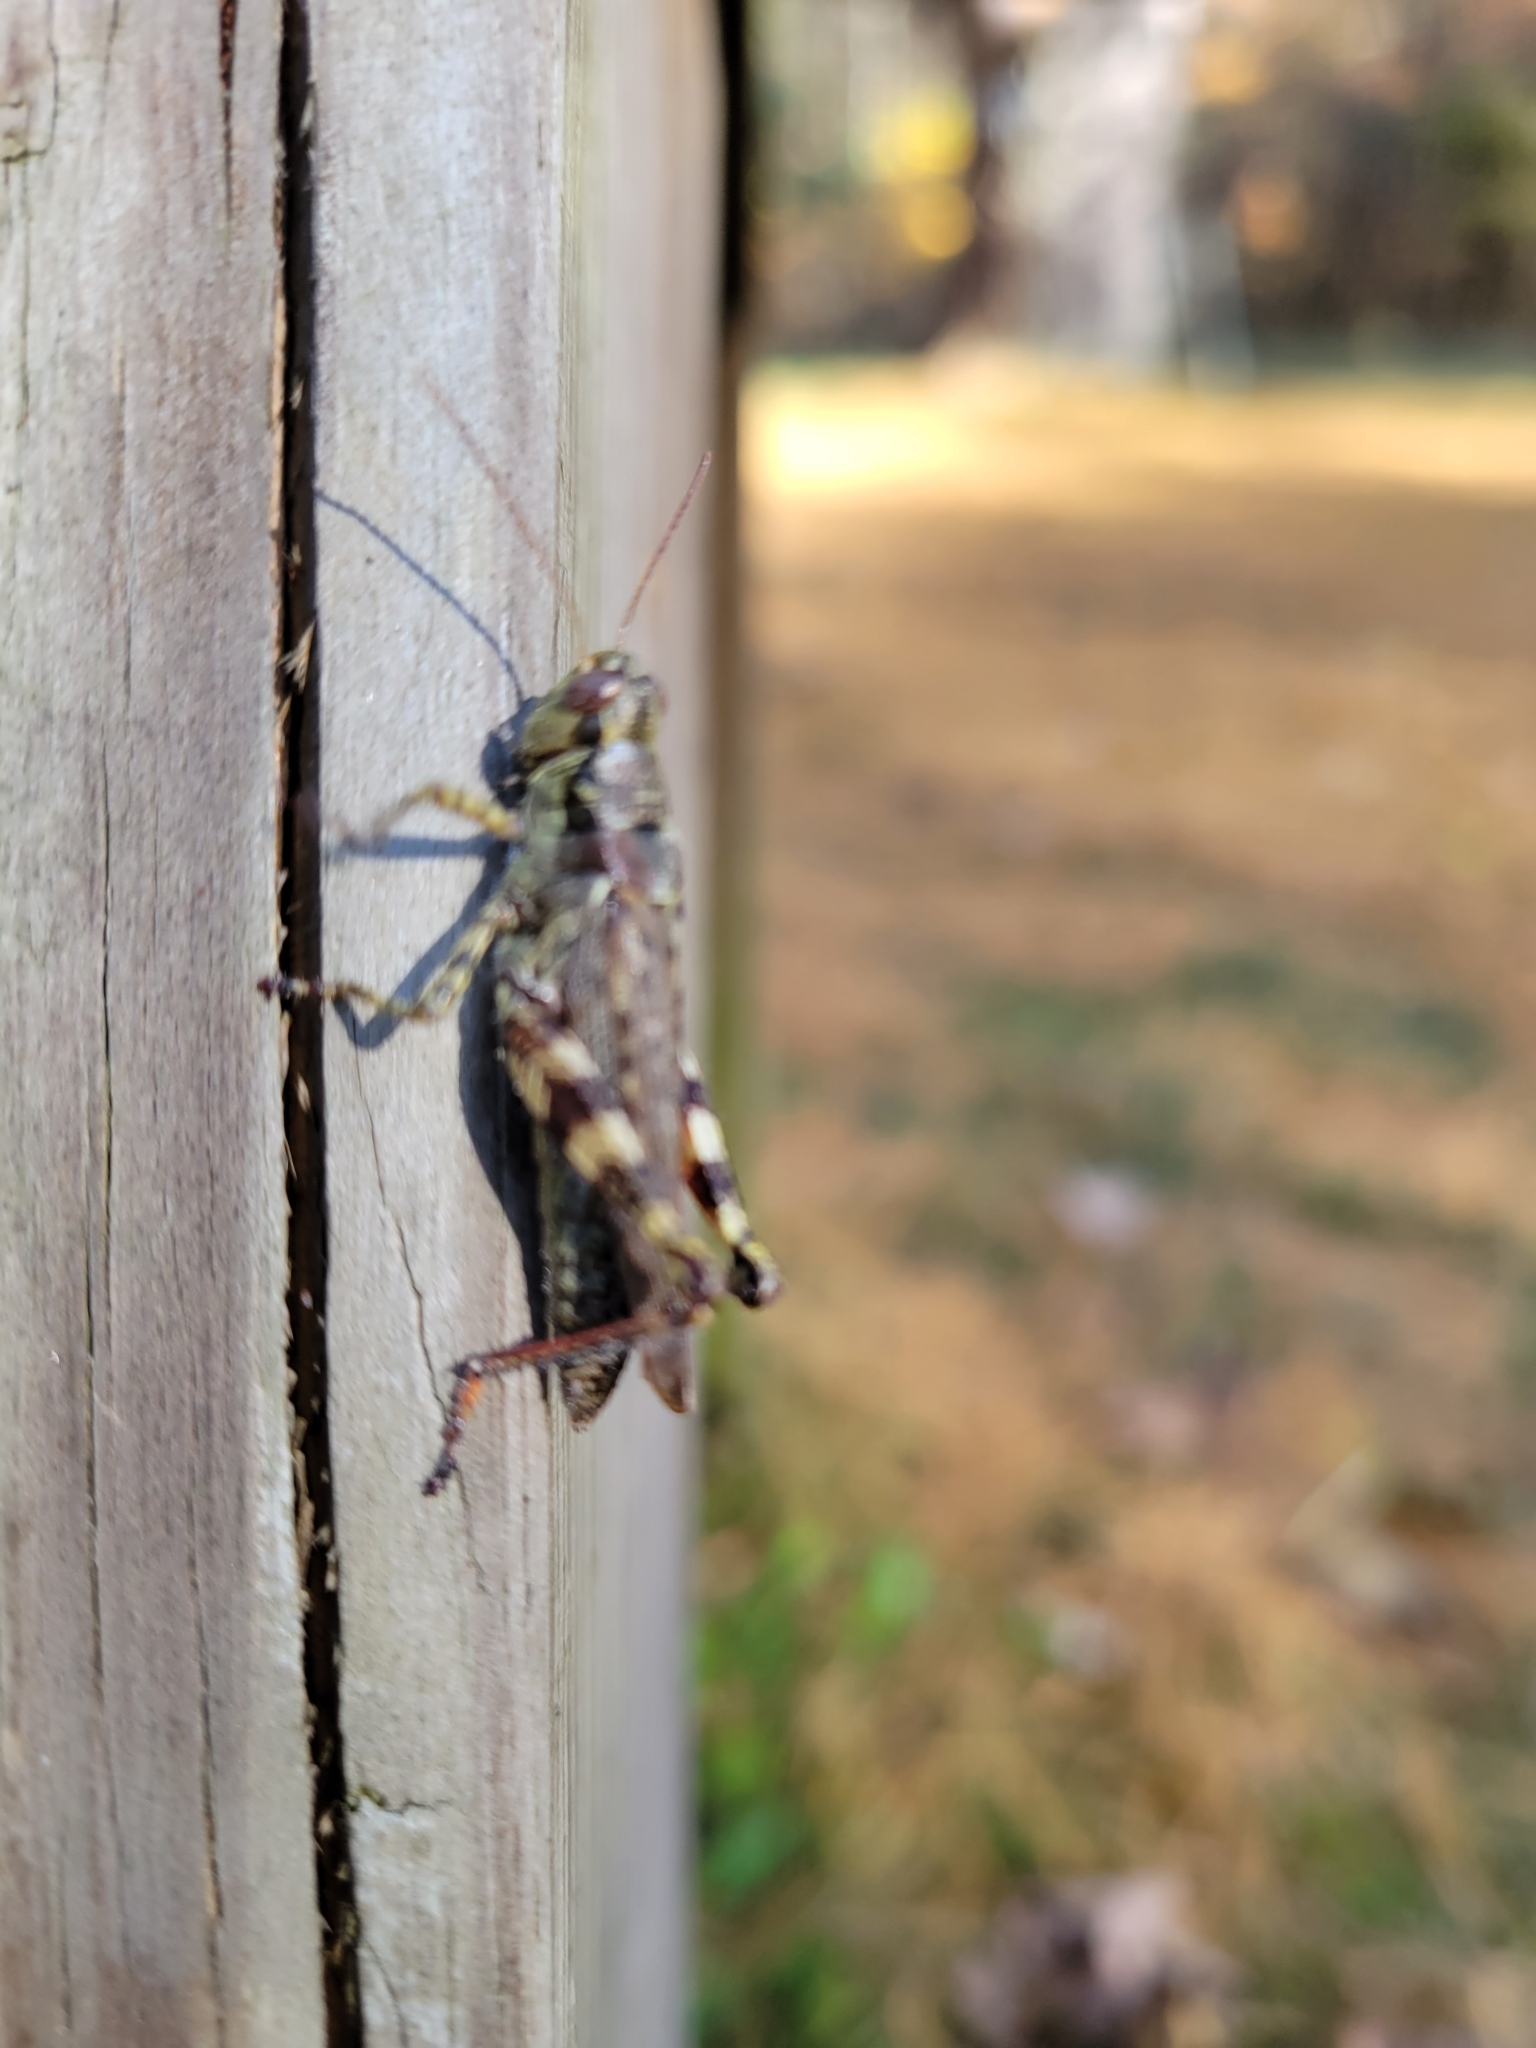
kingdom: Animalia
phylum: Arthropoda
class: Insecta
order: Orthoptera
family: Acrididae
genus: Melanoplus
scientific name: Melanoplus punctulatus
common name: Pine-tree spur-throat grasshopper
